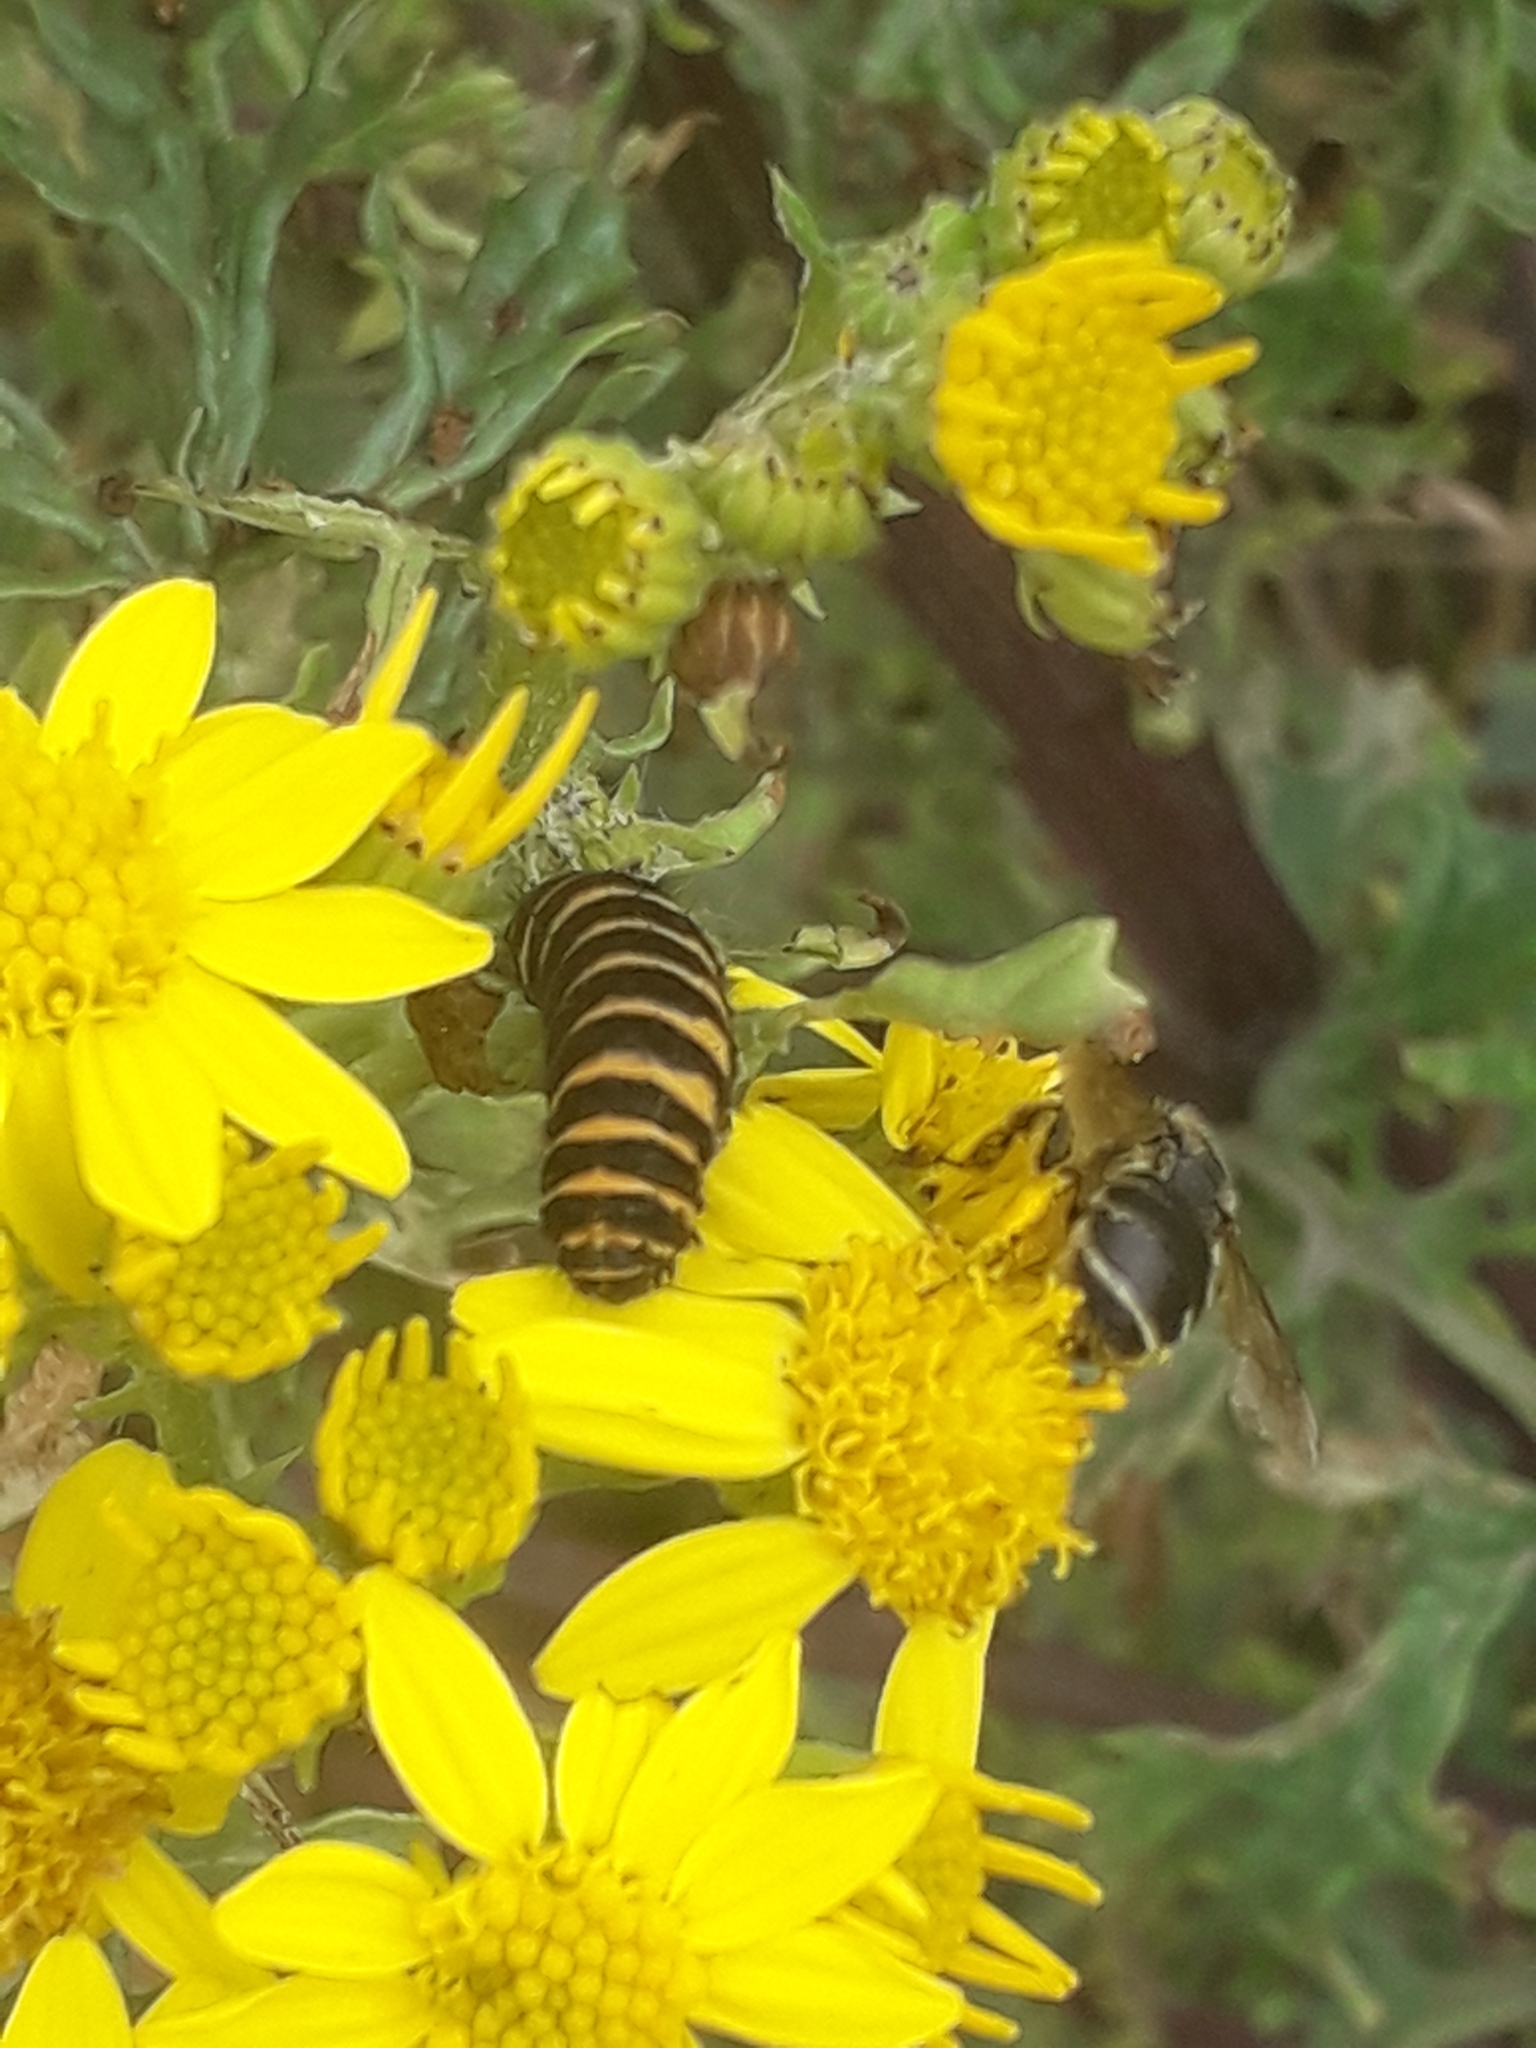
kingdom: Animalia
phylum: Arthropoda
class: Insecta
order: Lepidoptera
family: Erebidae
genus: Tyria
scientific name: Tyria jacobaeae
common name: Cinnabar
